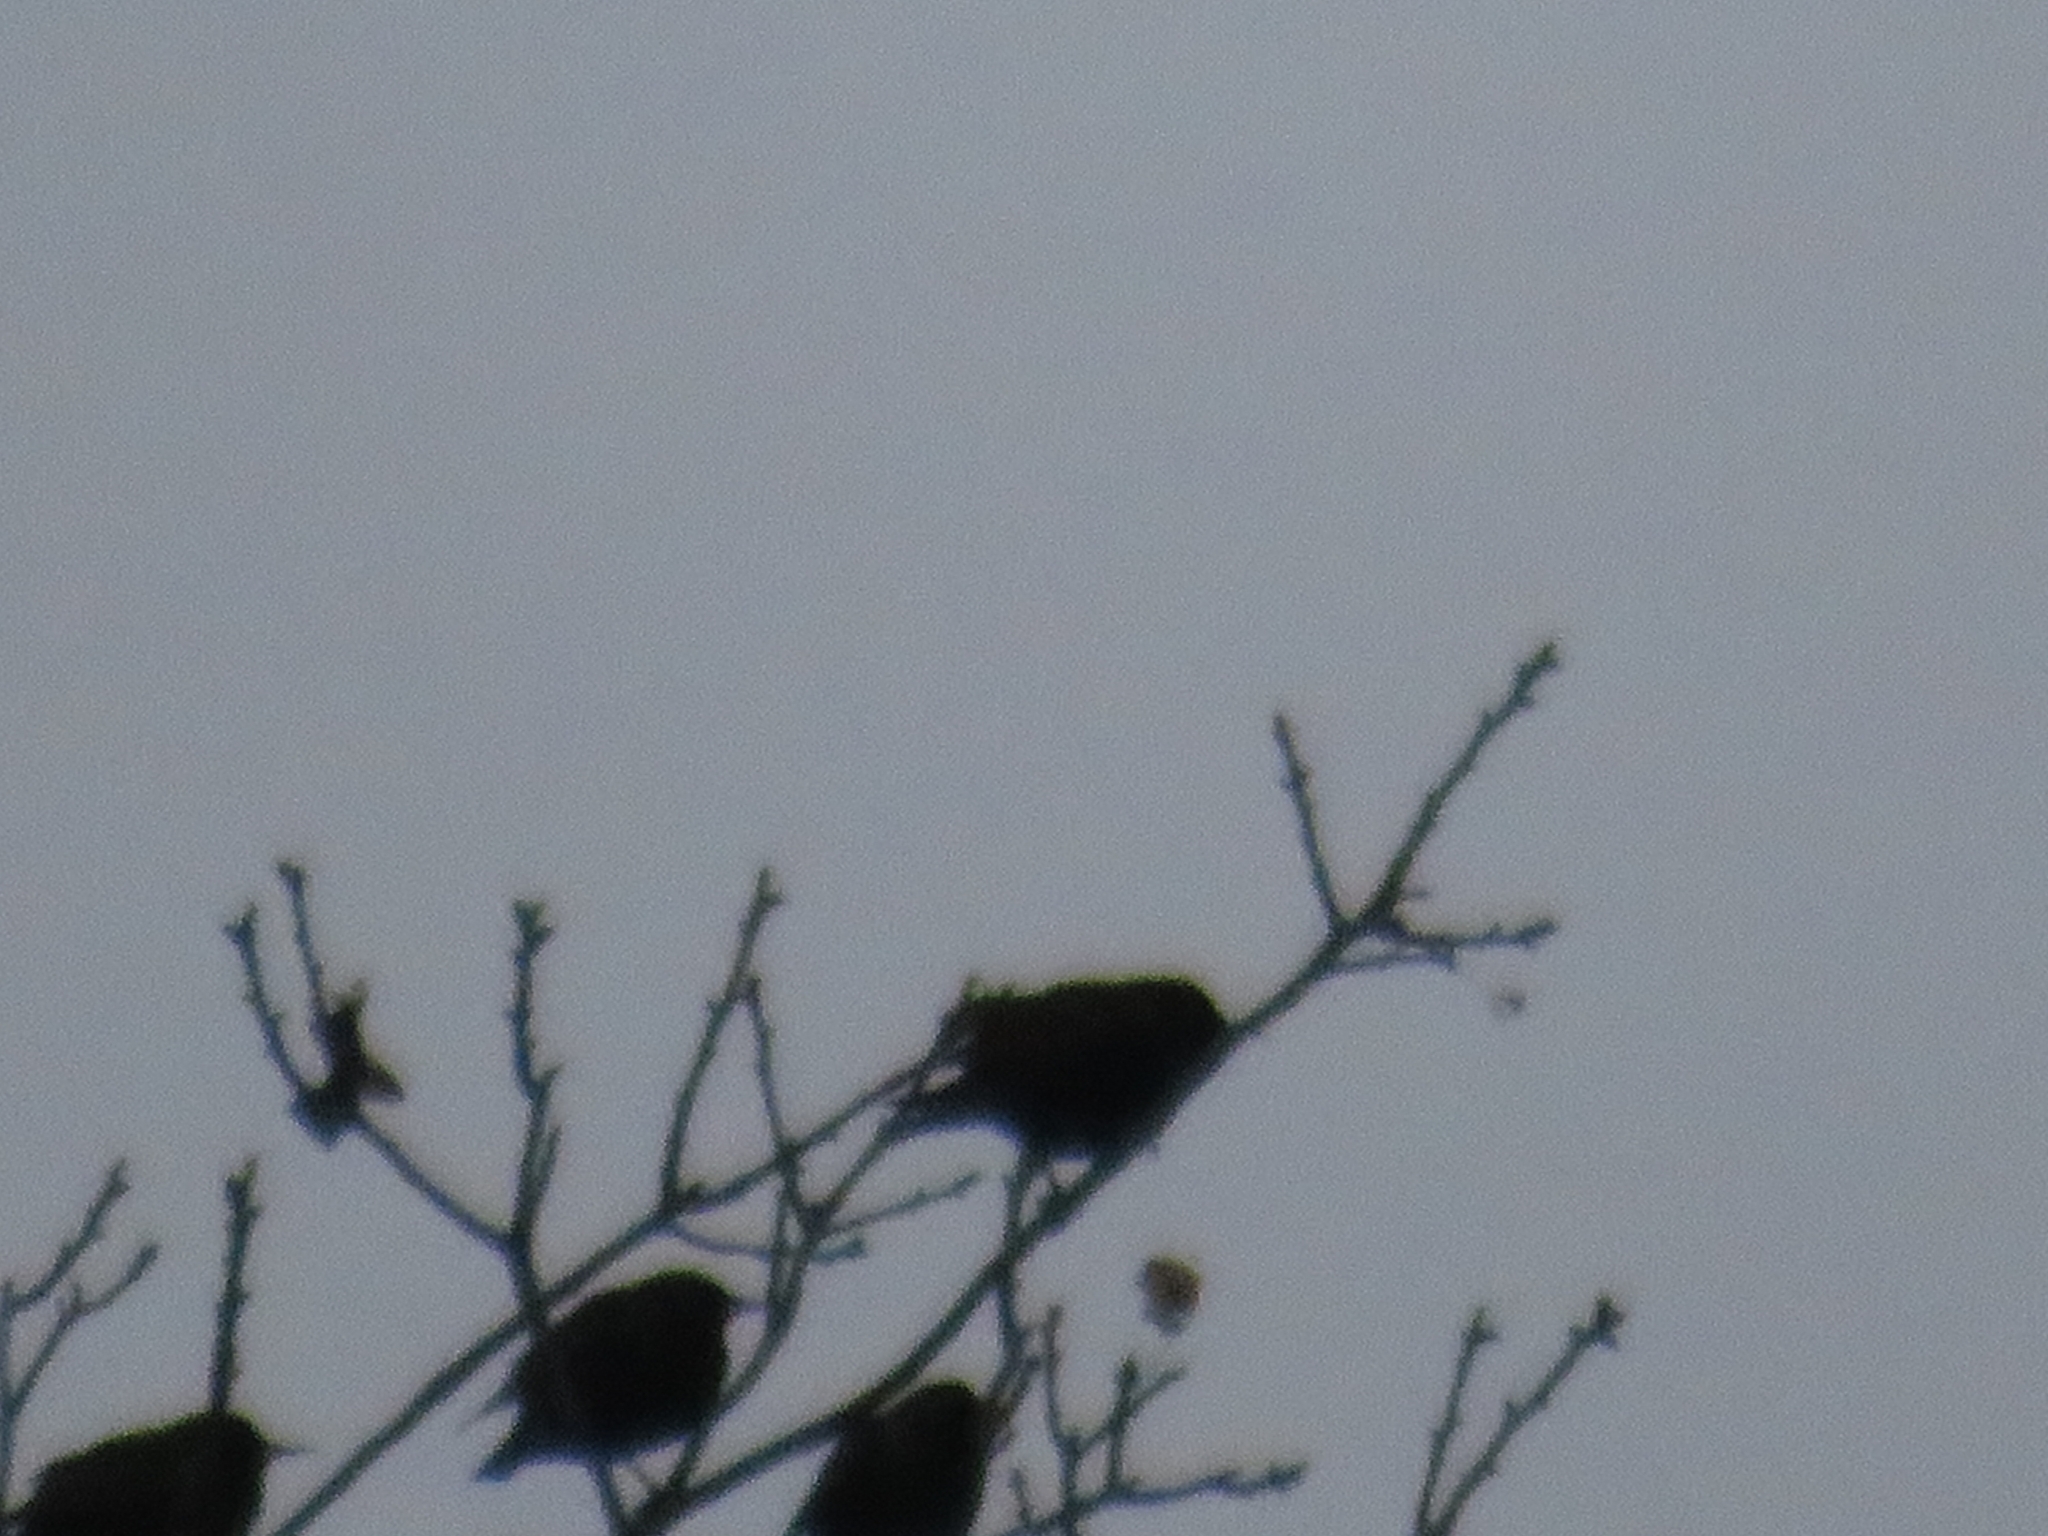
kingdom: Animalia
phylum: Chordata
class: Aves
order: Passeriformes
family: Sturnidae
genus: Sturnus
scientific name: Sturnus vulgaris
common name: Common starling
